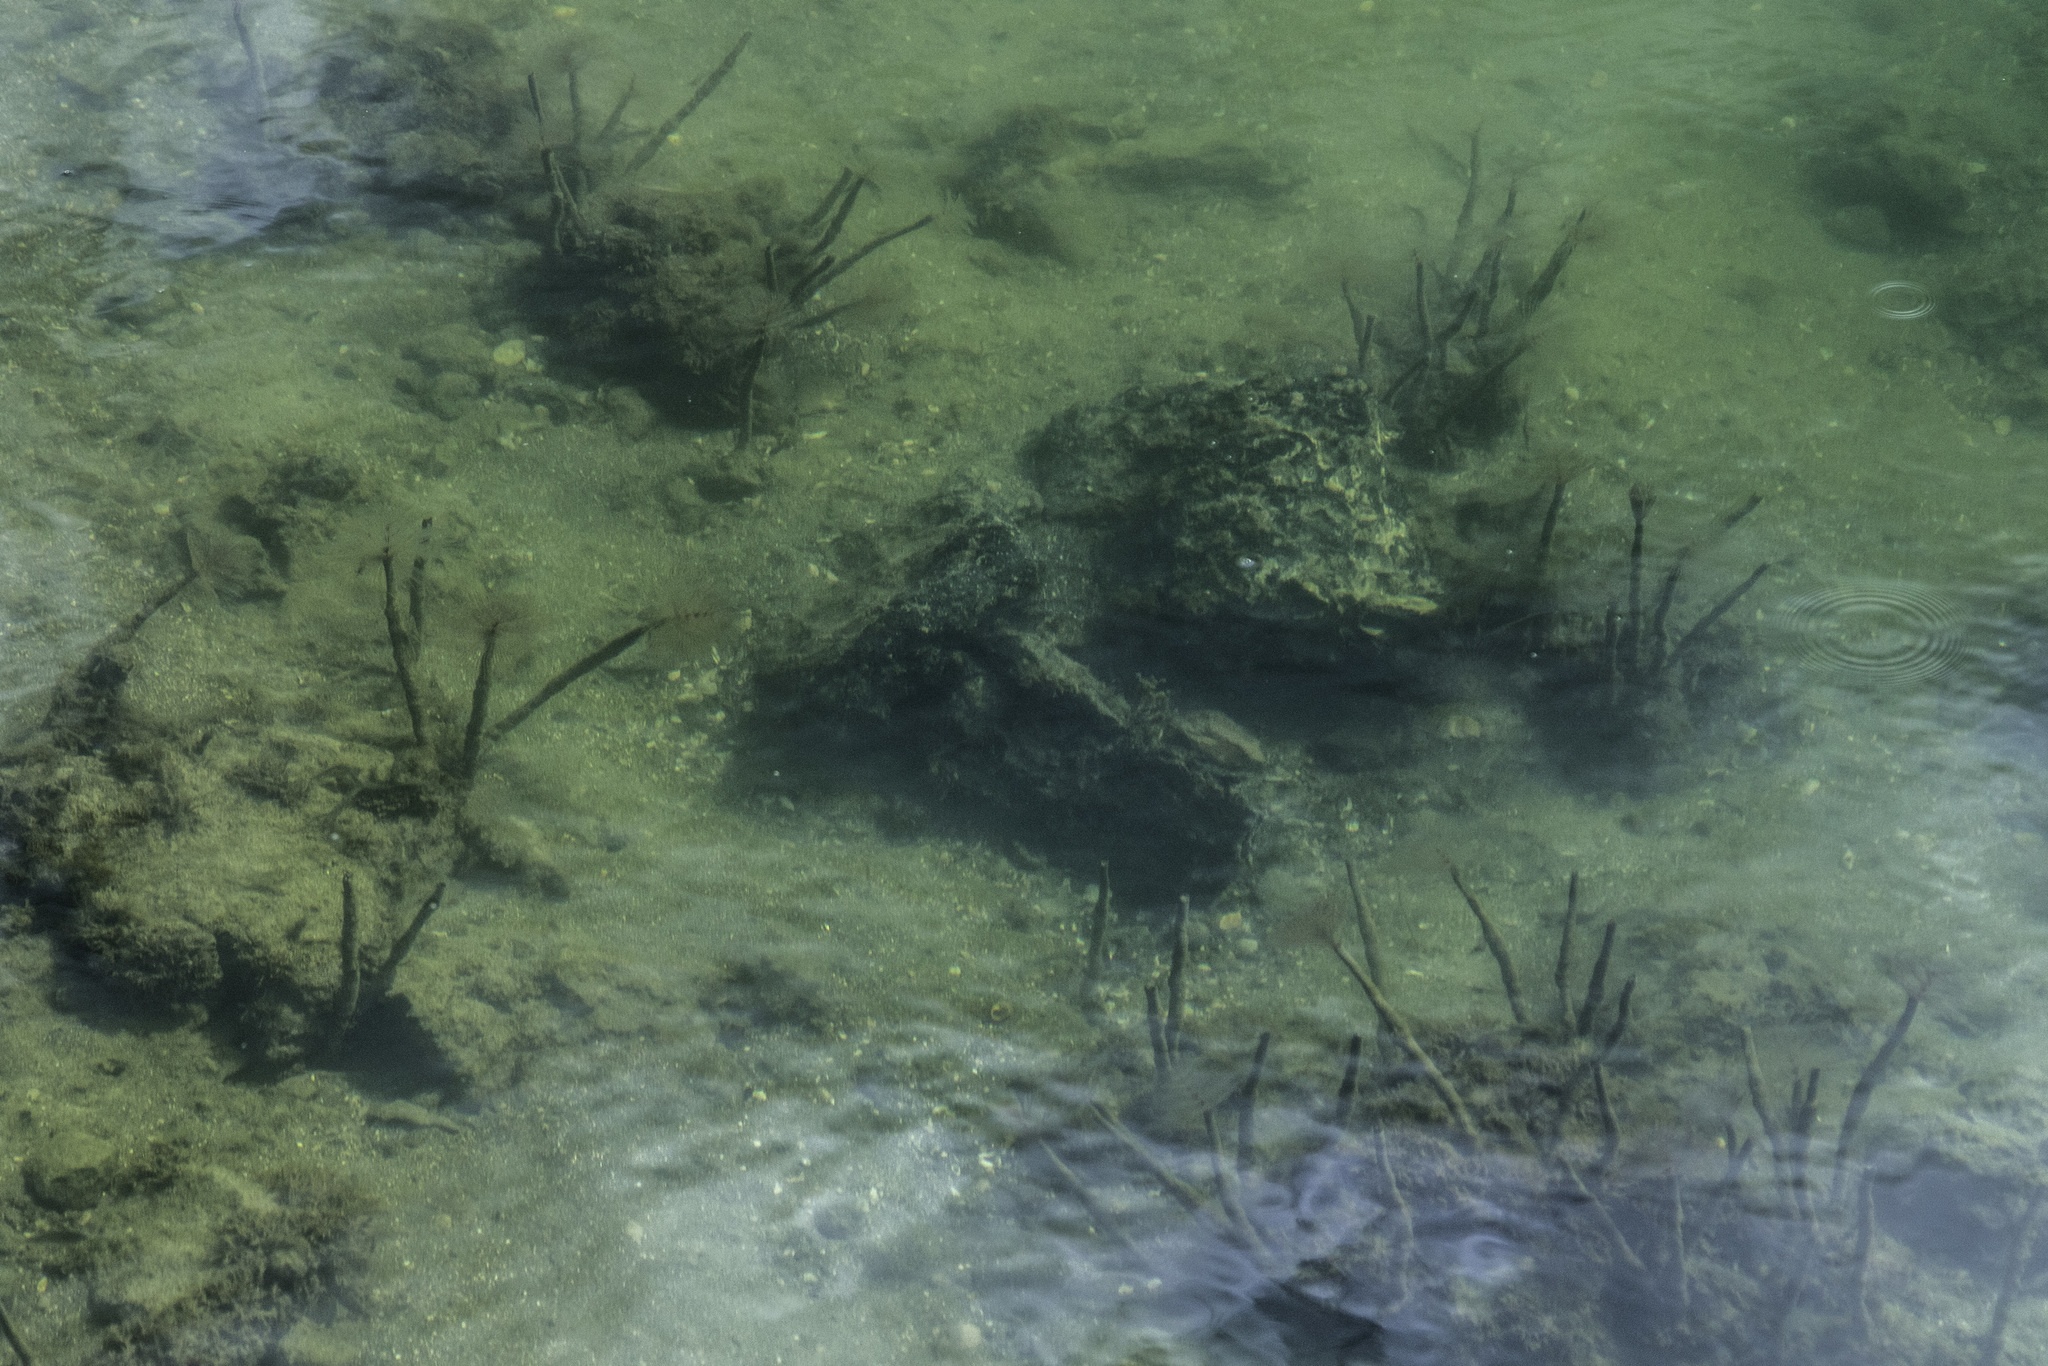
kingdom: Animalia
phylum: Annelida
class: Polychaeta
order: Sabellida
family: Sabellidae
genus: Sabella
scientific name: Sabella spallanzanii
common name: Feather duster worm
